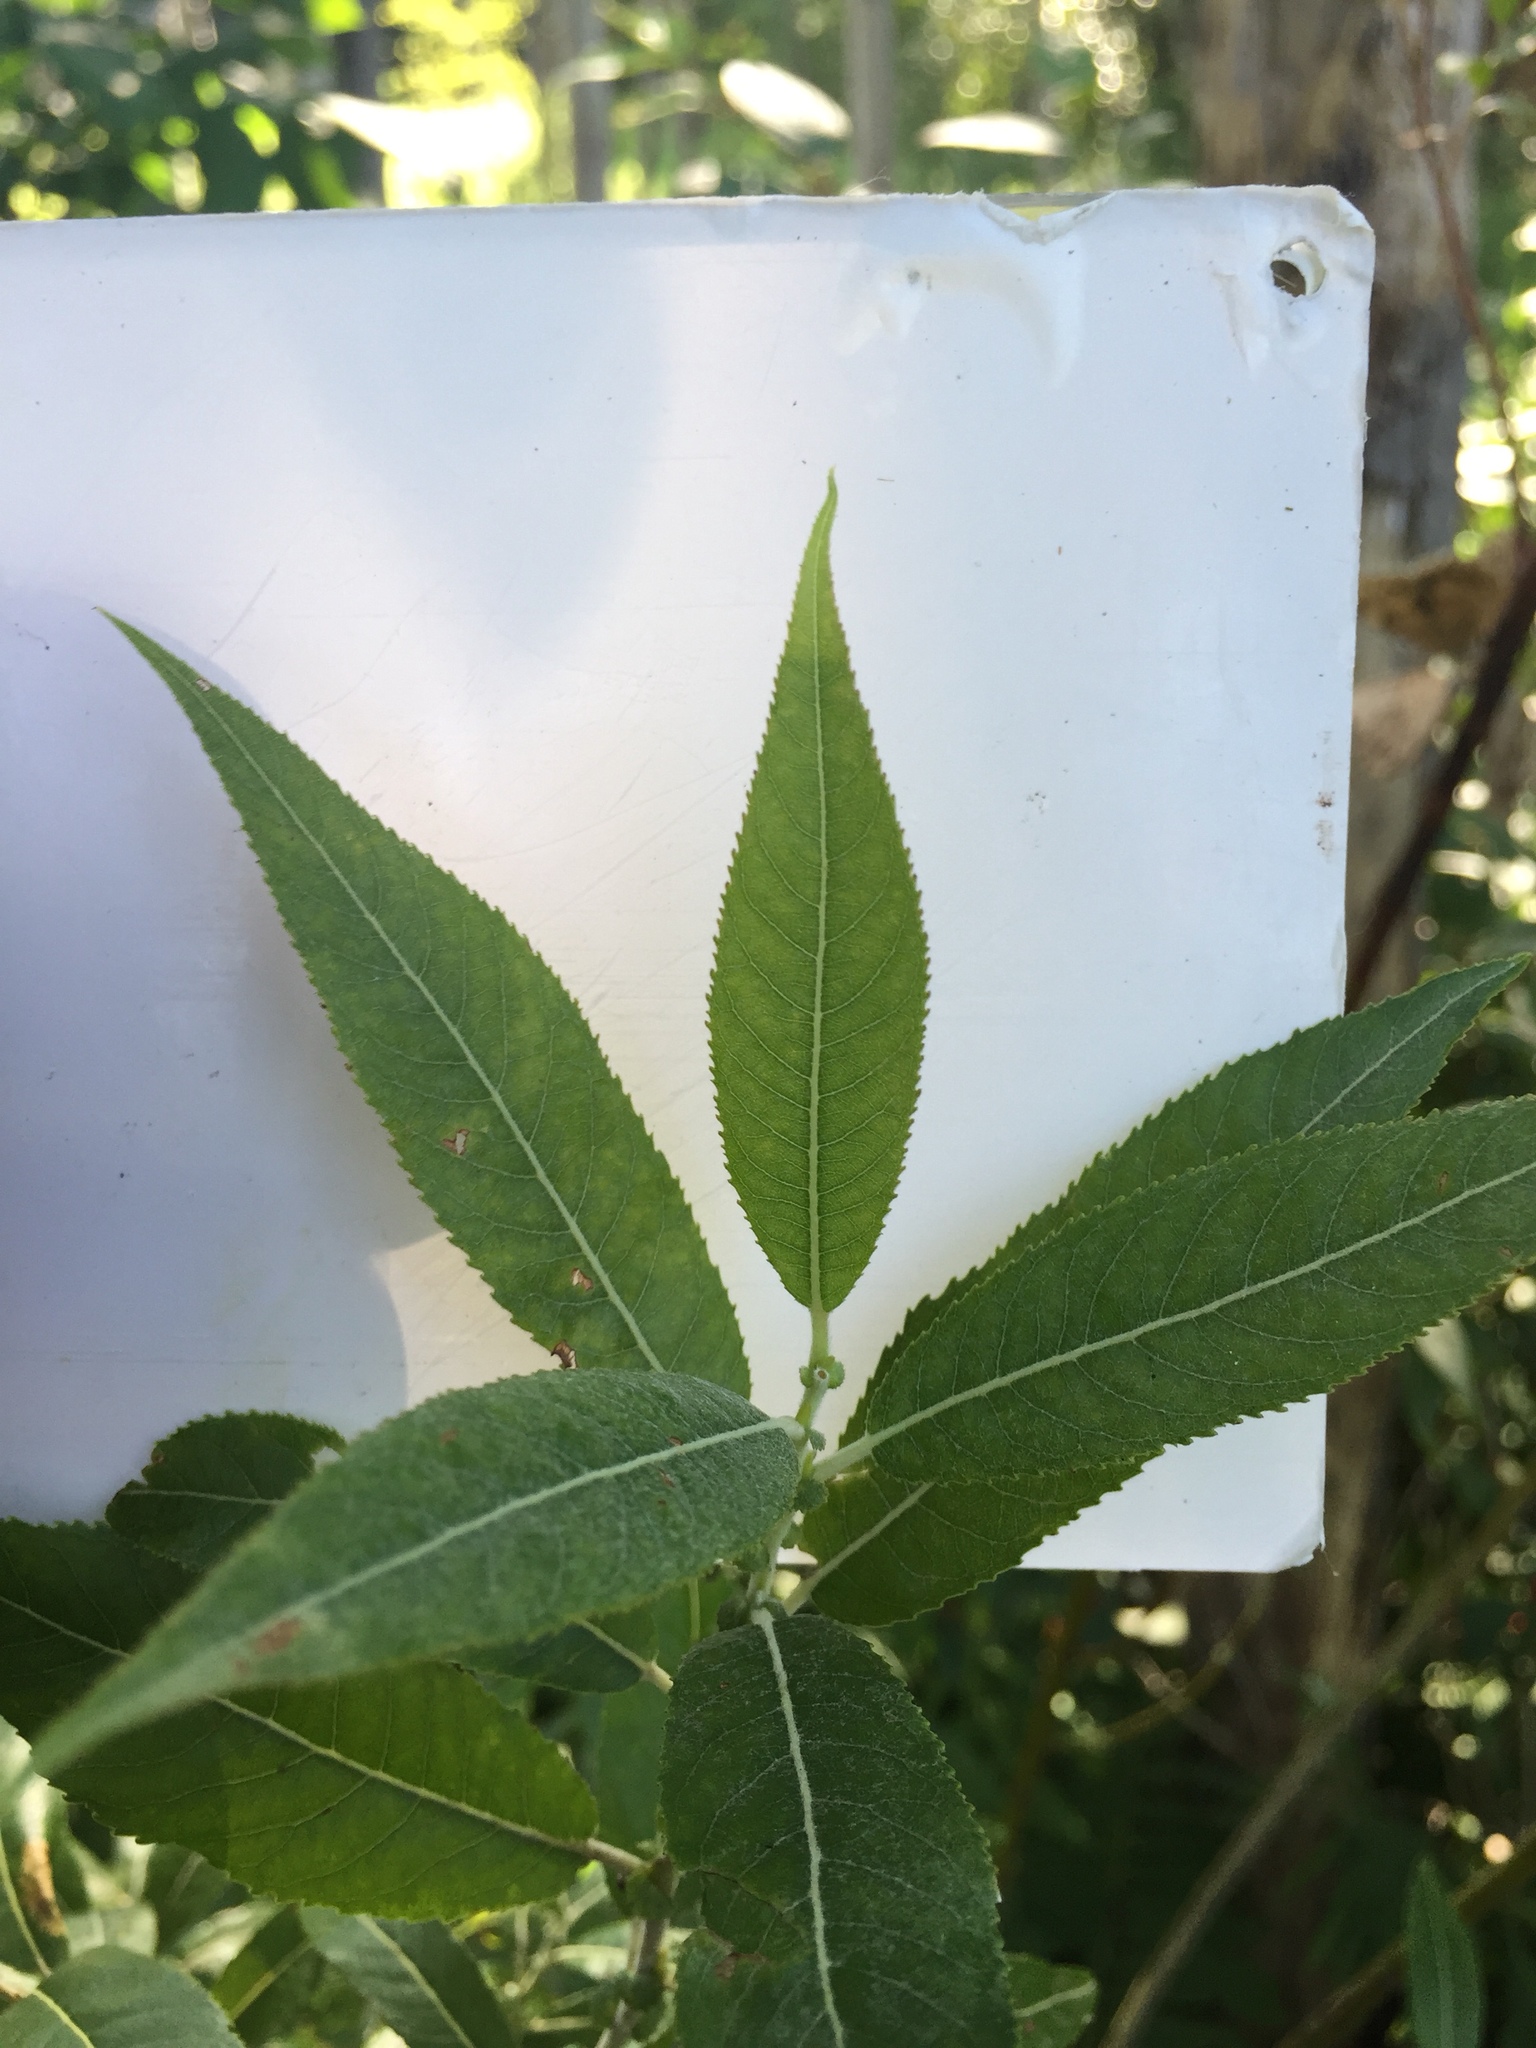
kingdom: Plantae
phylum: Tracheophyta
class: Magnoliopsida
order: Malpighiales
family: Salicaceae
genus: Salix
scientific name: Salix eriocephala
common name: Heart-leaved willow
